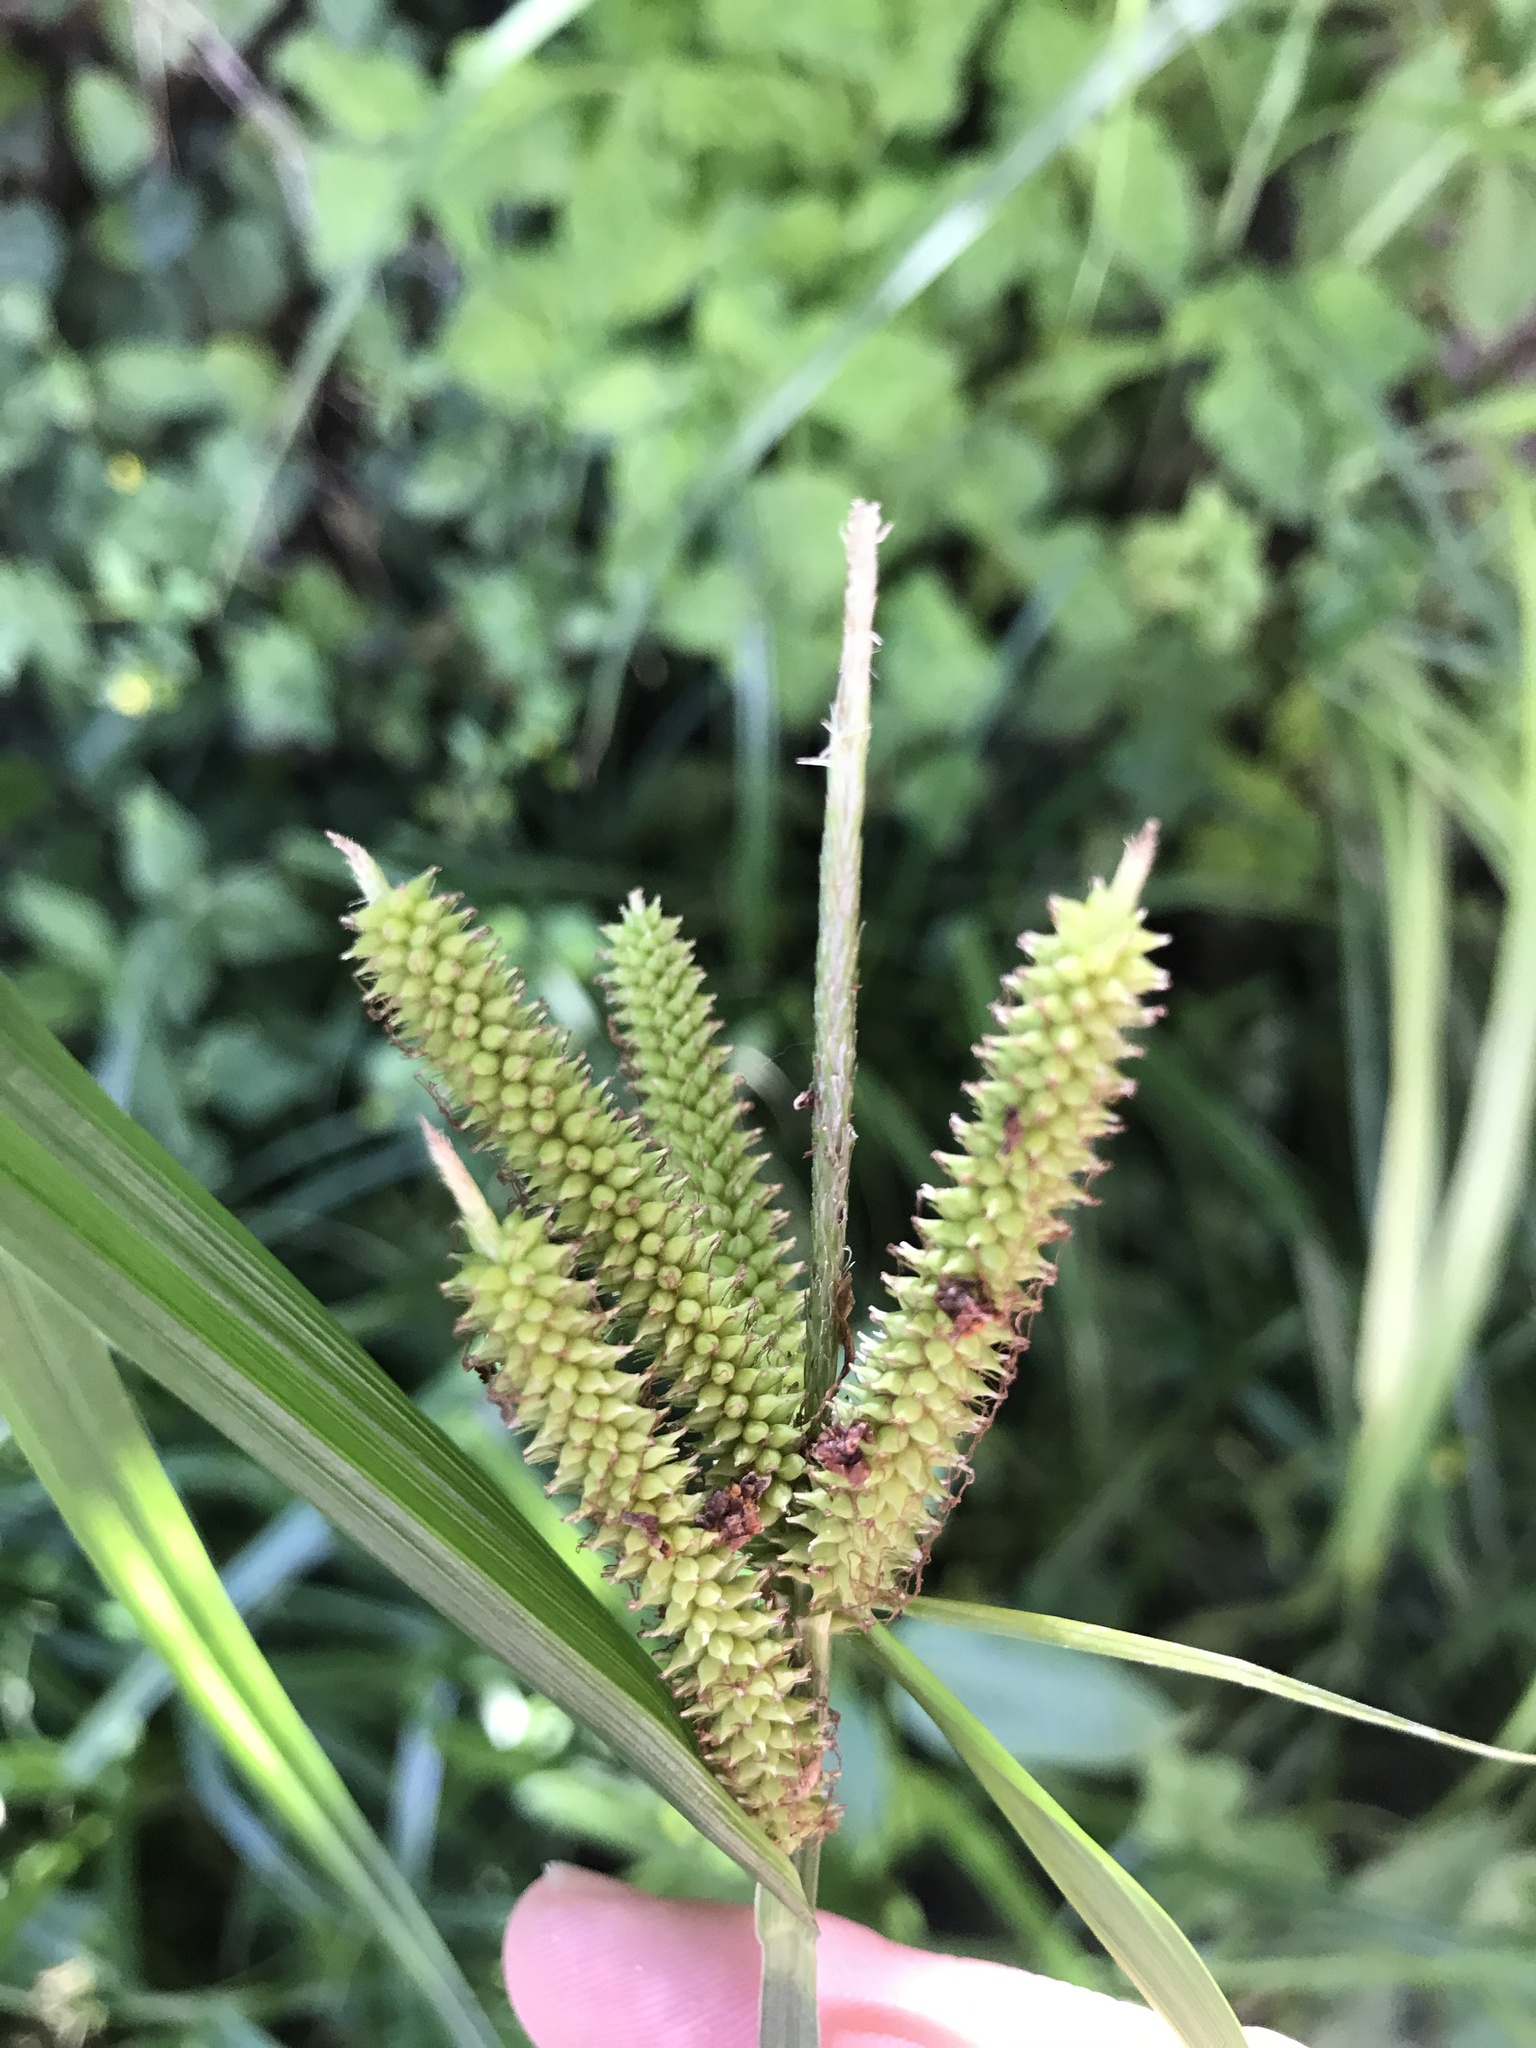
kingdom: Plantae
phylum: Tracheophyta
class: Liliopsida
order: Poales
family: Cyperaceae
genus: Carex
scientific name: Carex alopecuroides
